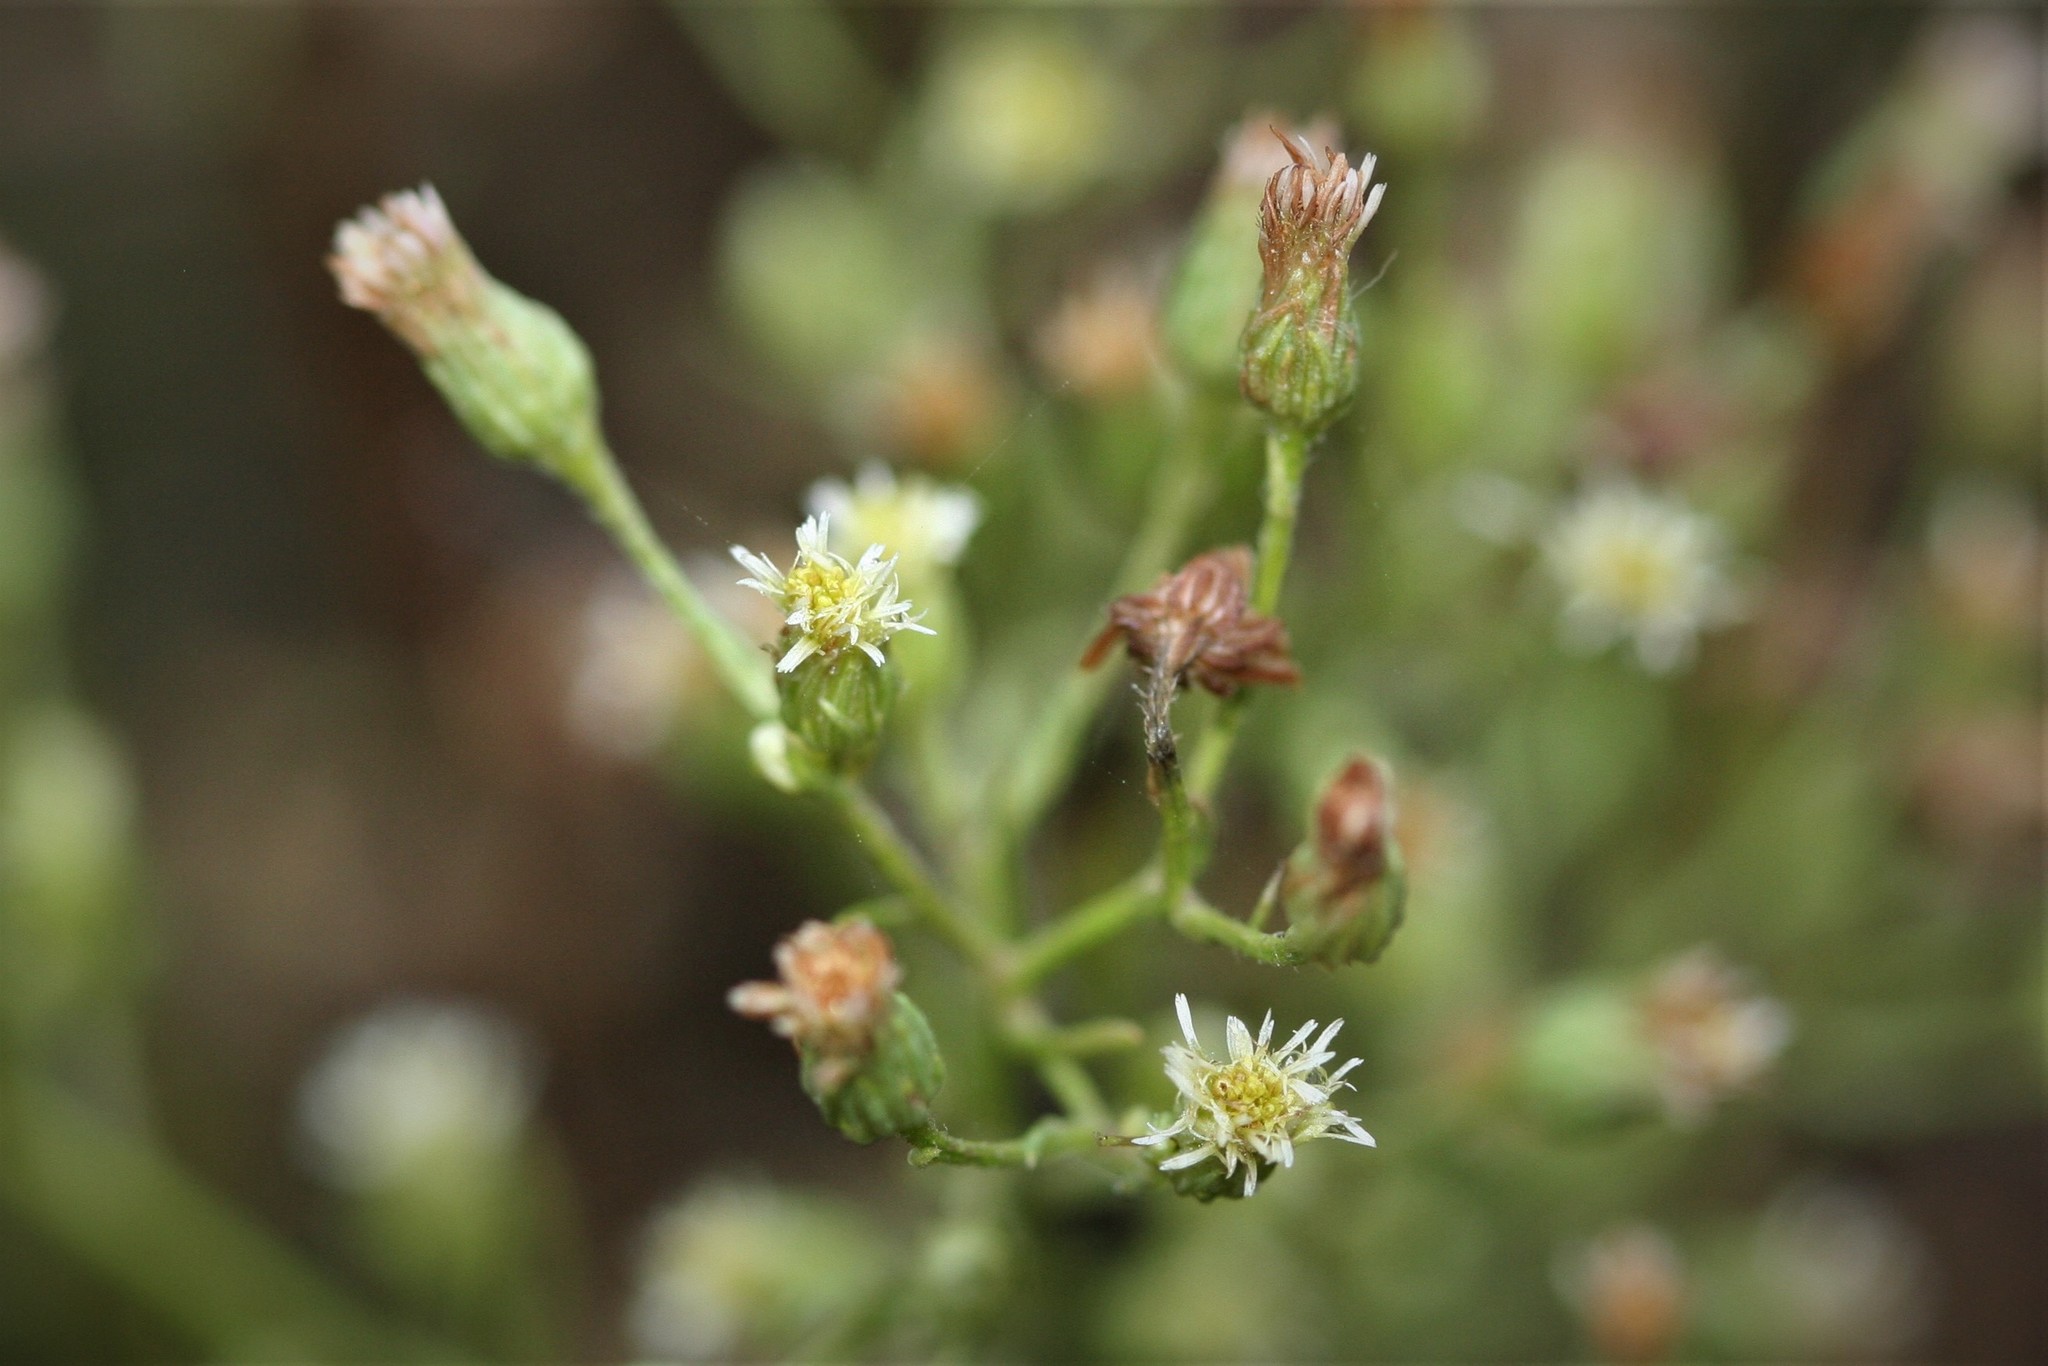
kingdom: Plantae
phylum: Tracheophyta
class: Magnoliopsida
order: Asterales
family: Asteraceae
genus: Erigeron
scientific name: Erigeron canadensis
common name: Canadian fleabane
